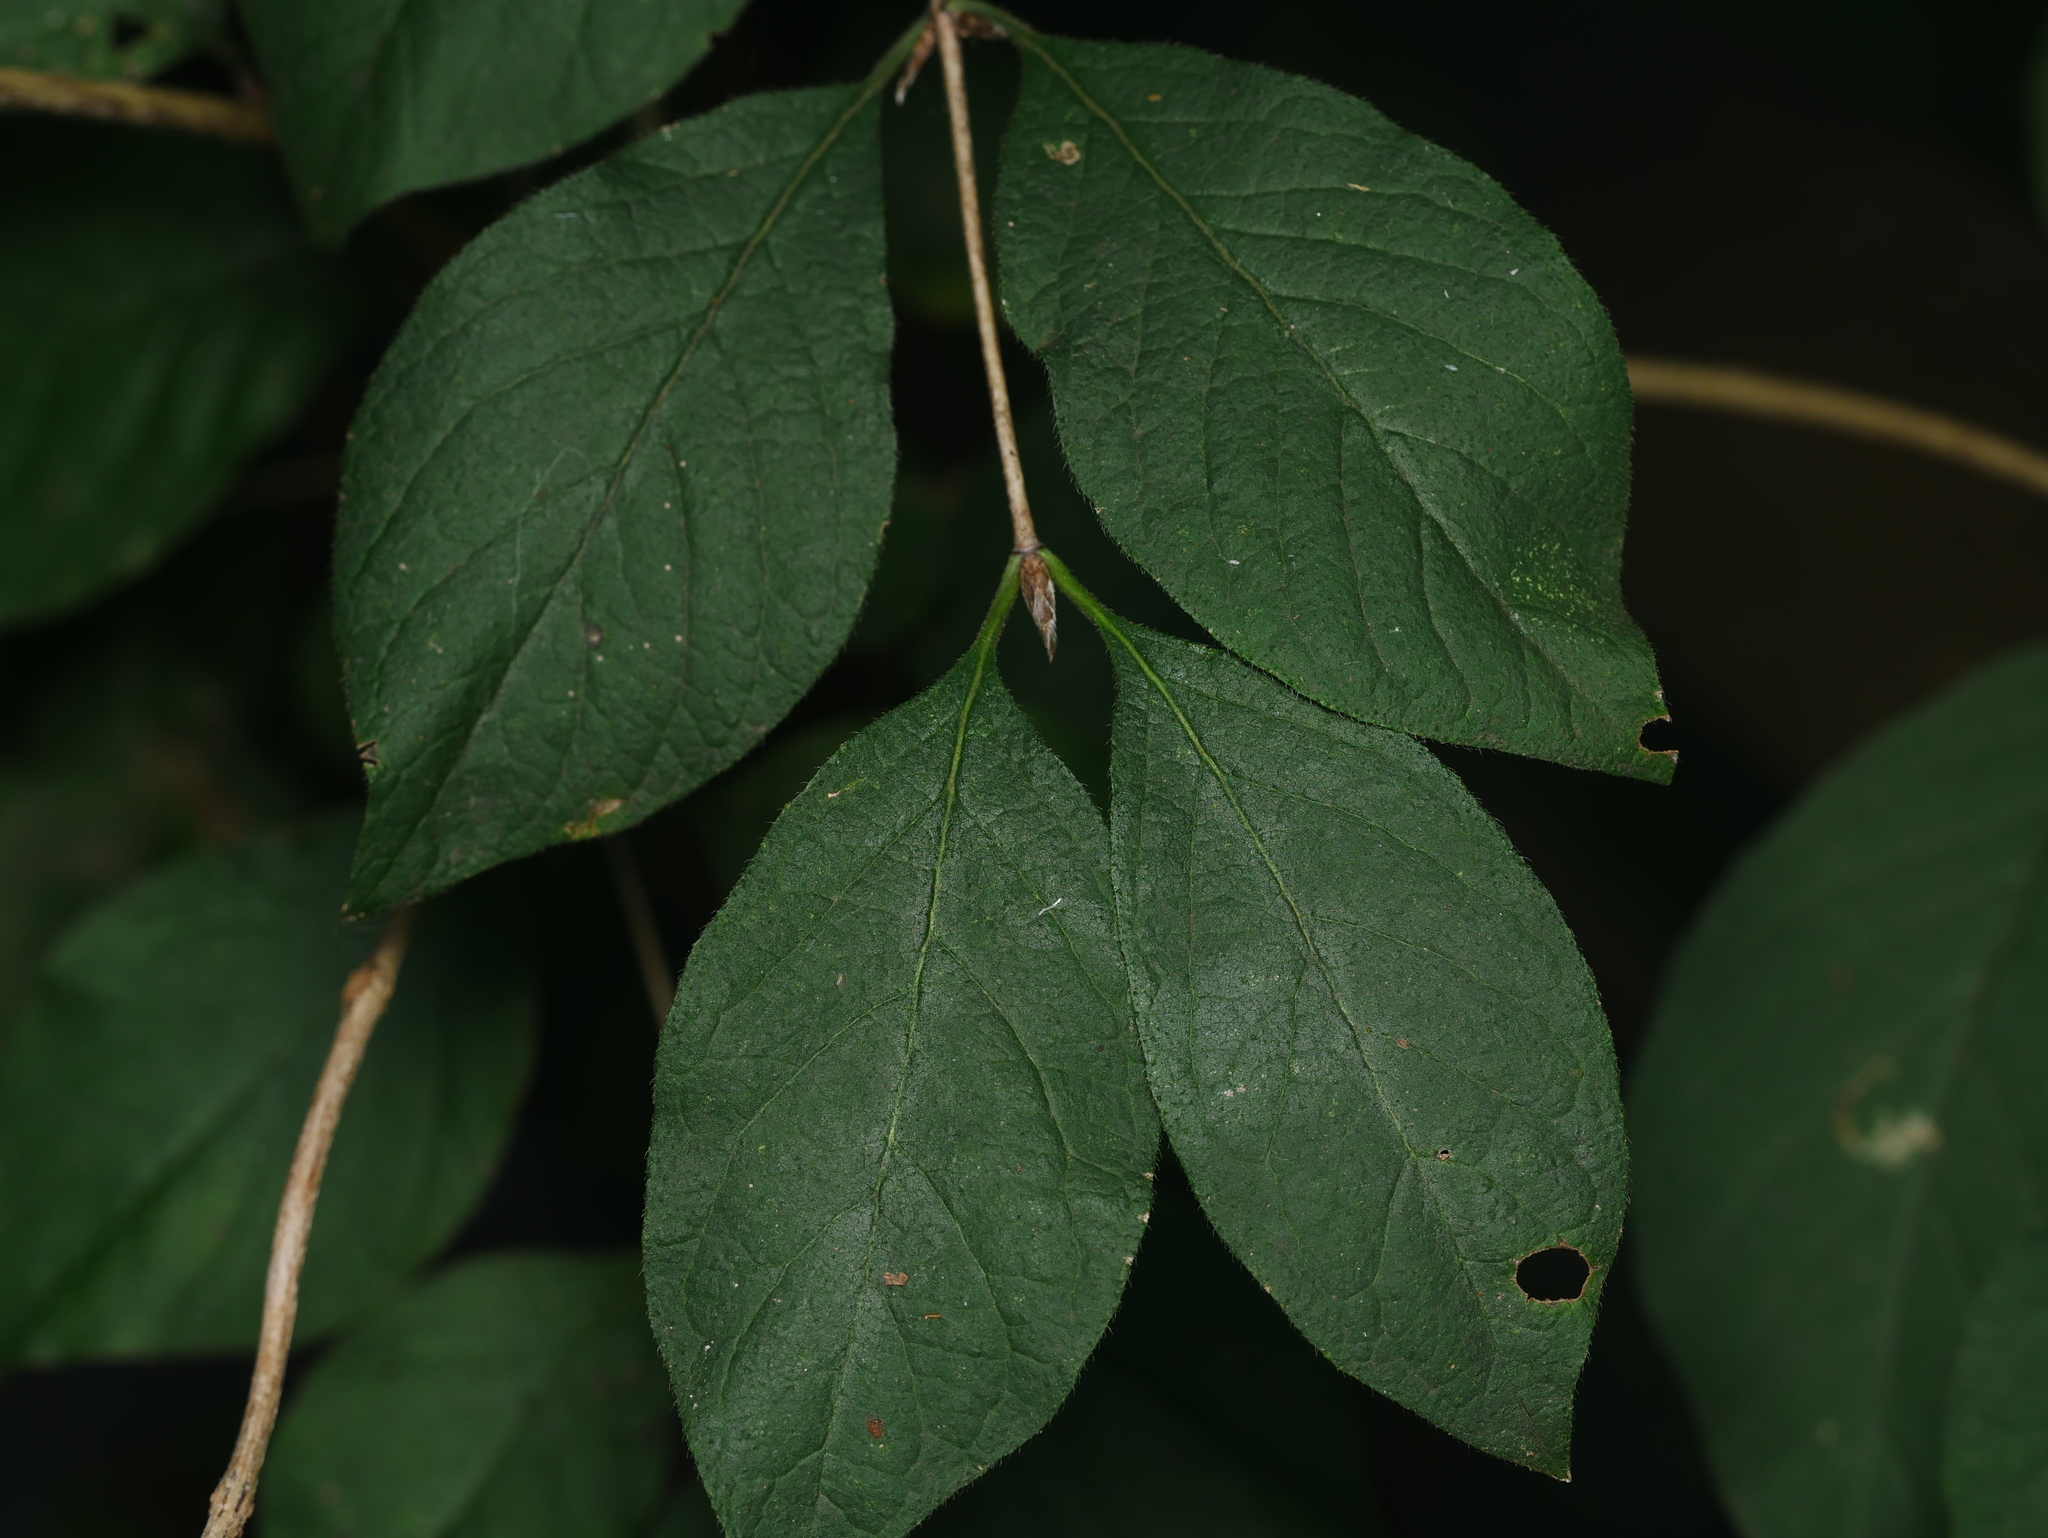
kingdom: Plantae
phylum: Tracheophyta
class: Magnoliopsida
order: Dipsacales
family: Caprifoliaceae
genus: Lonicera
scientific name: Lonicera xylosteum
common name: Fly honeysuckle
